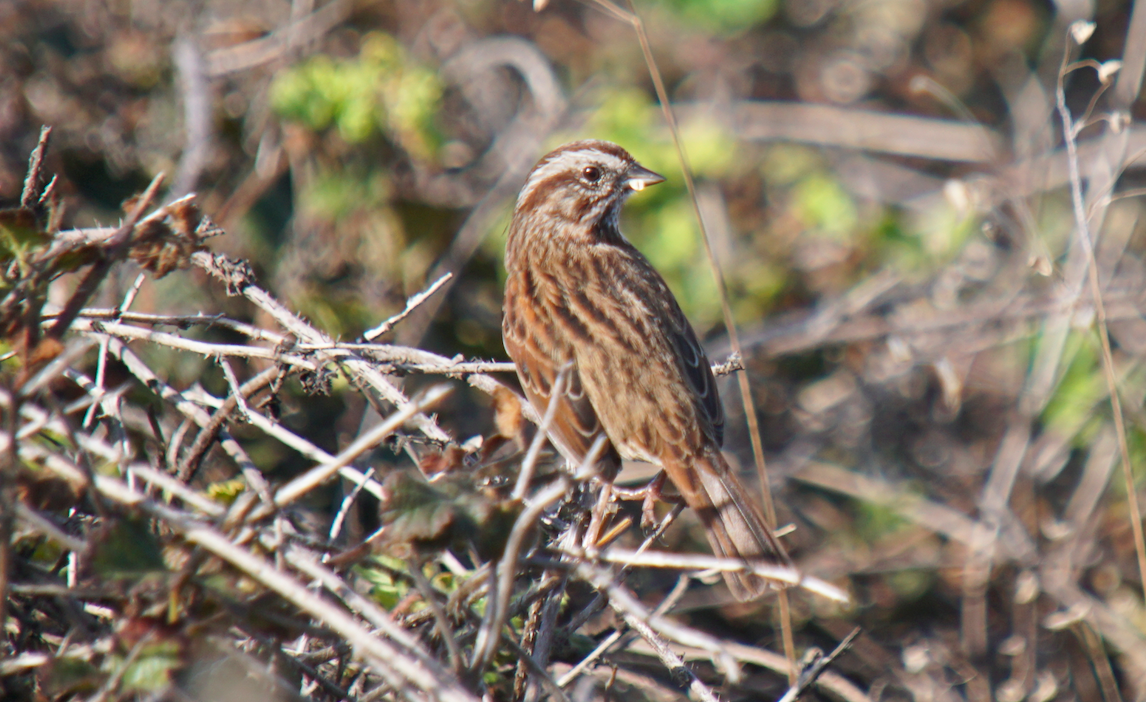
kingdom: Animalia
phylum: Chordata
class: Aves
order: Passeriformes
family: Passerellidae
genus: Melospiza
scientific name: Melospiza melodia
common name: Song sparrow
